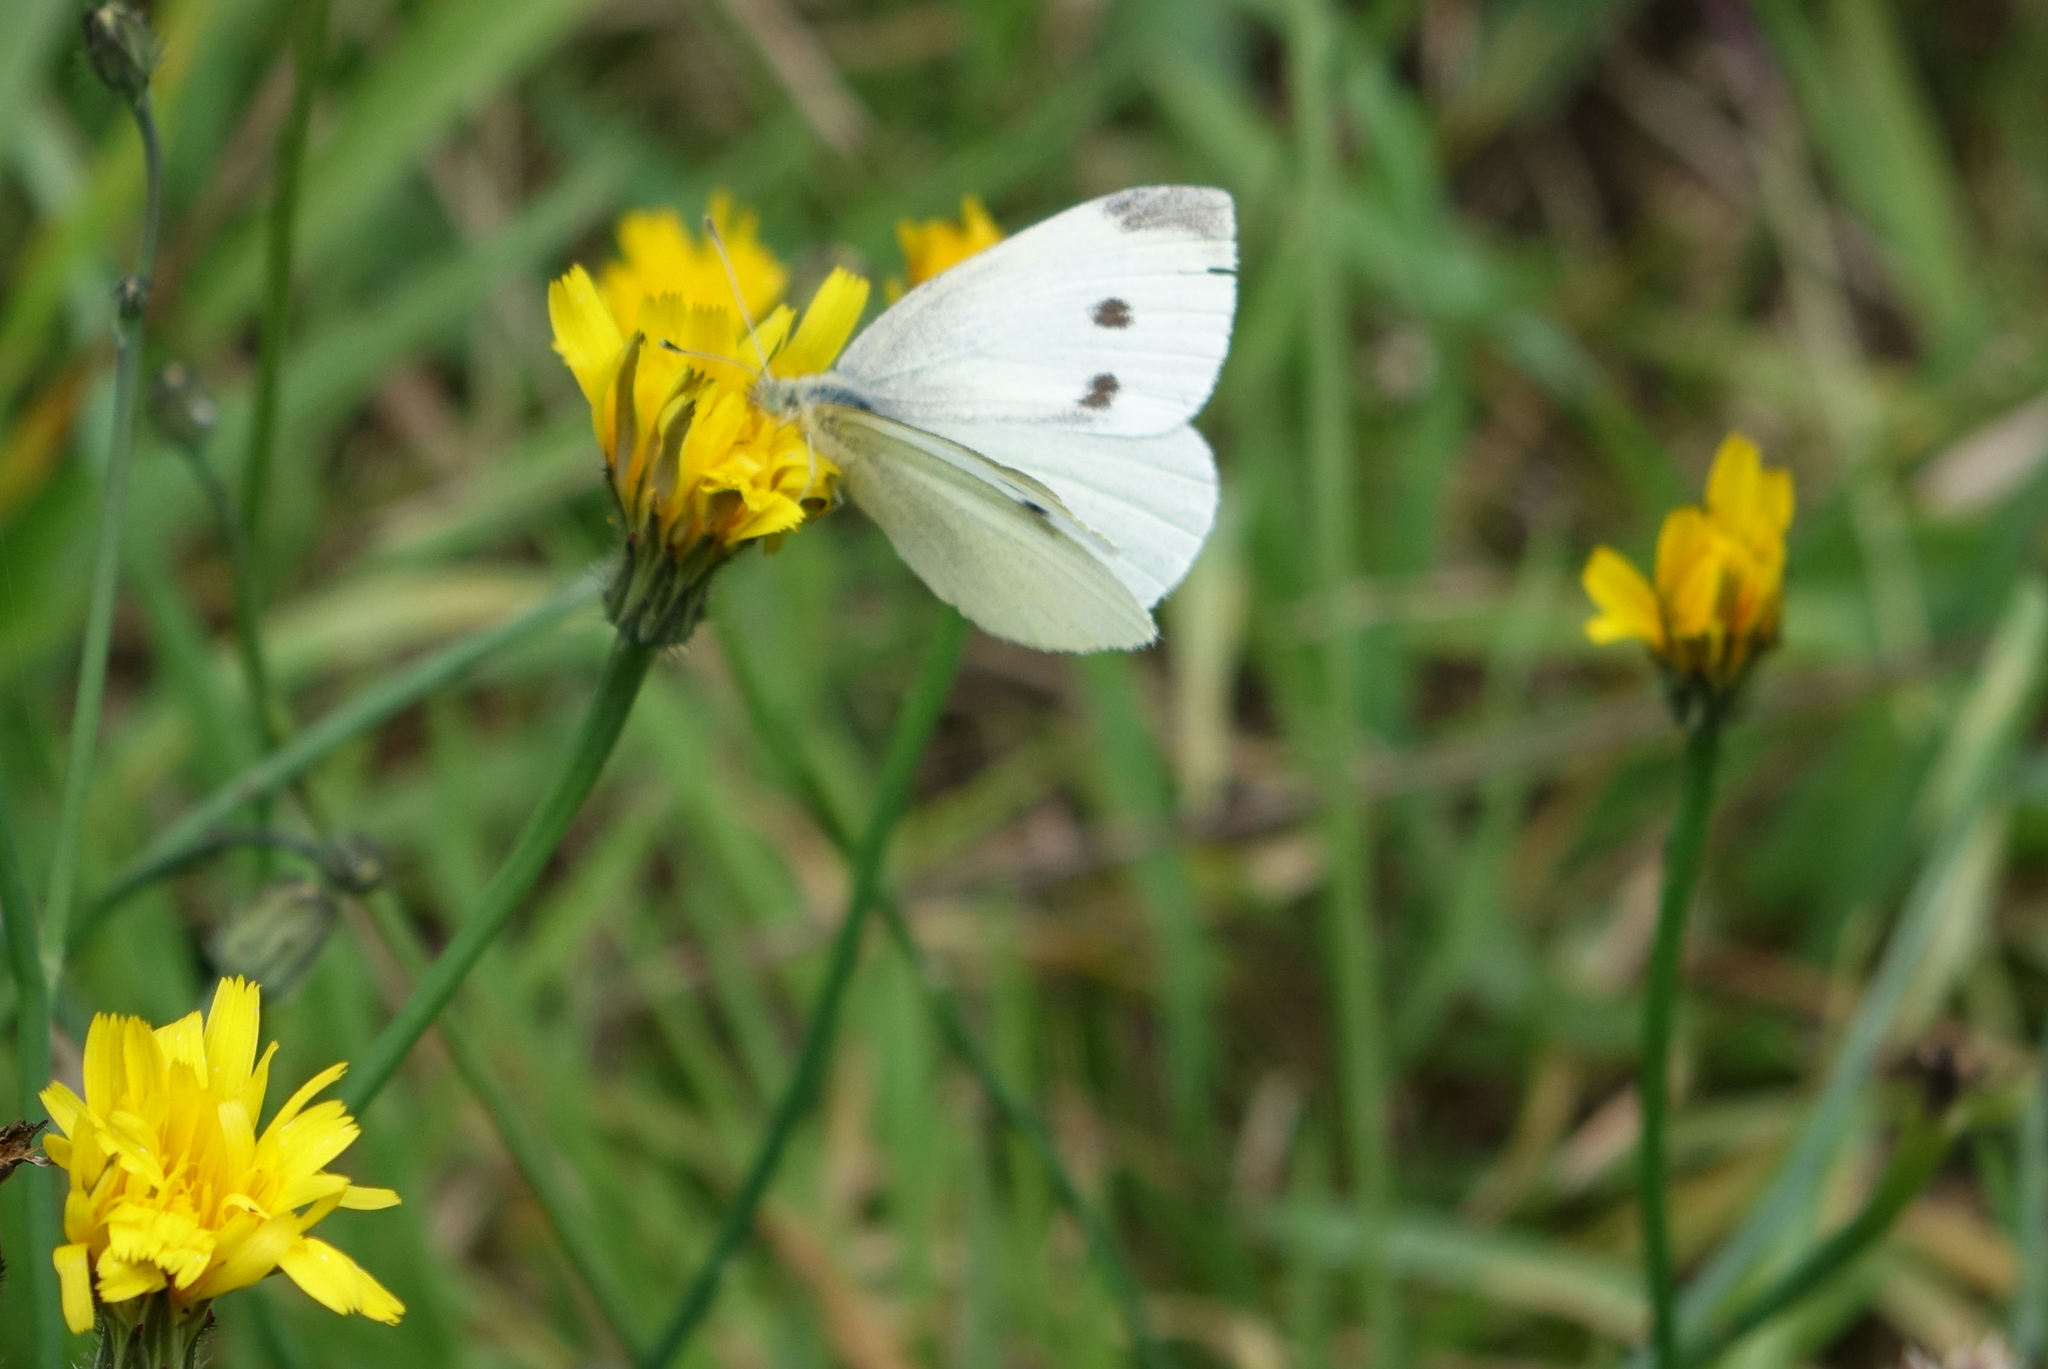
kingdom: Animalia
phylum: Arthropoda
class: Insecta
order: Lepidoptera
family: Pieridae
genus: Pieris
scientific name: Pieris rapae
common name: Small white
